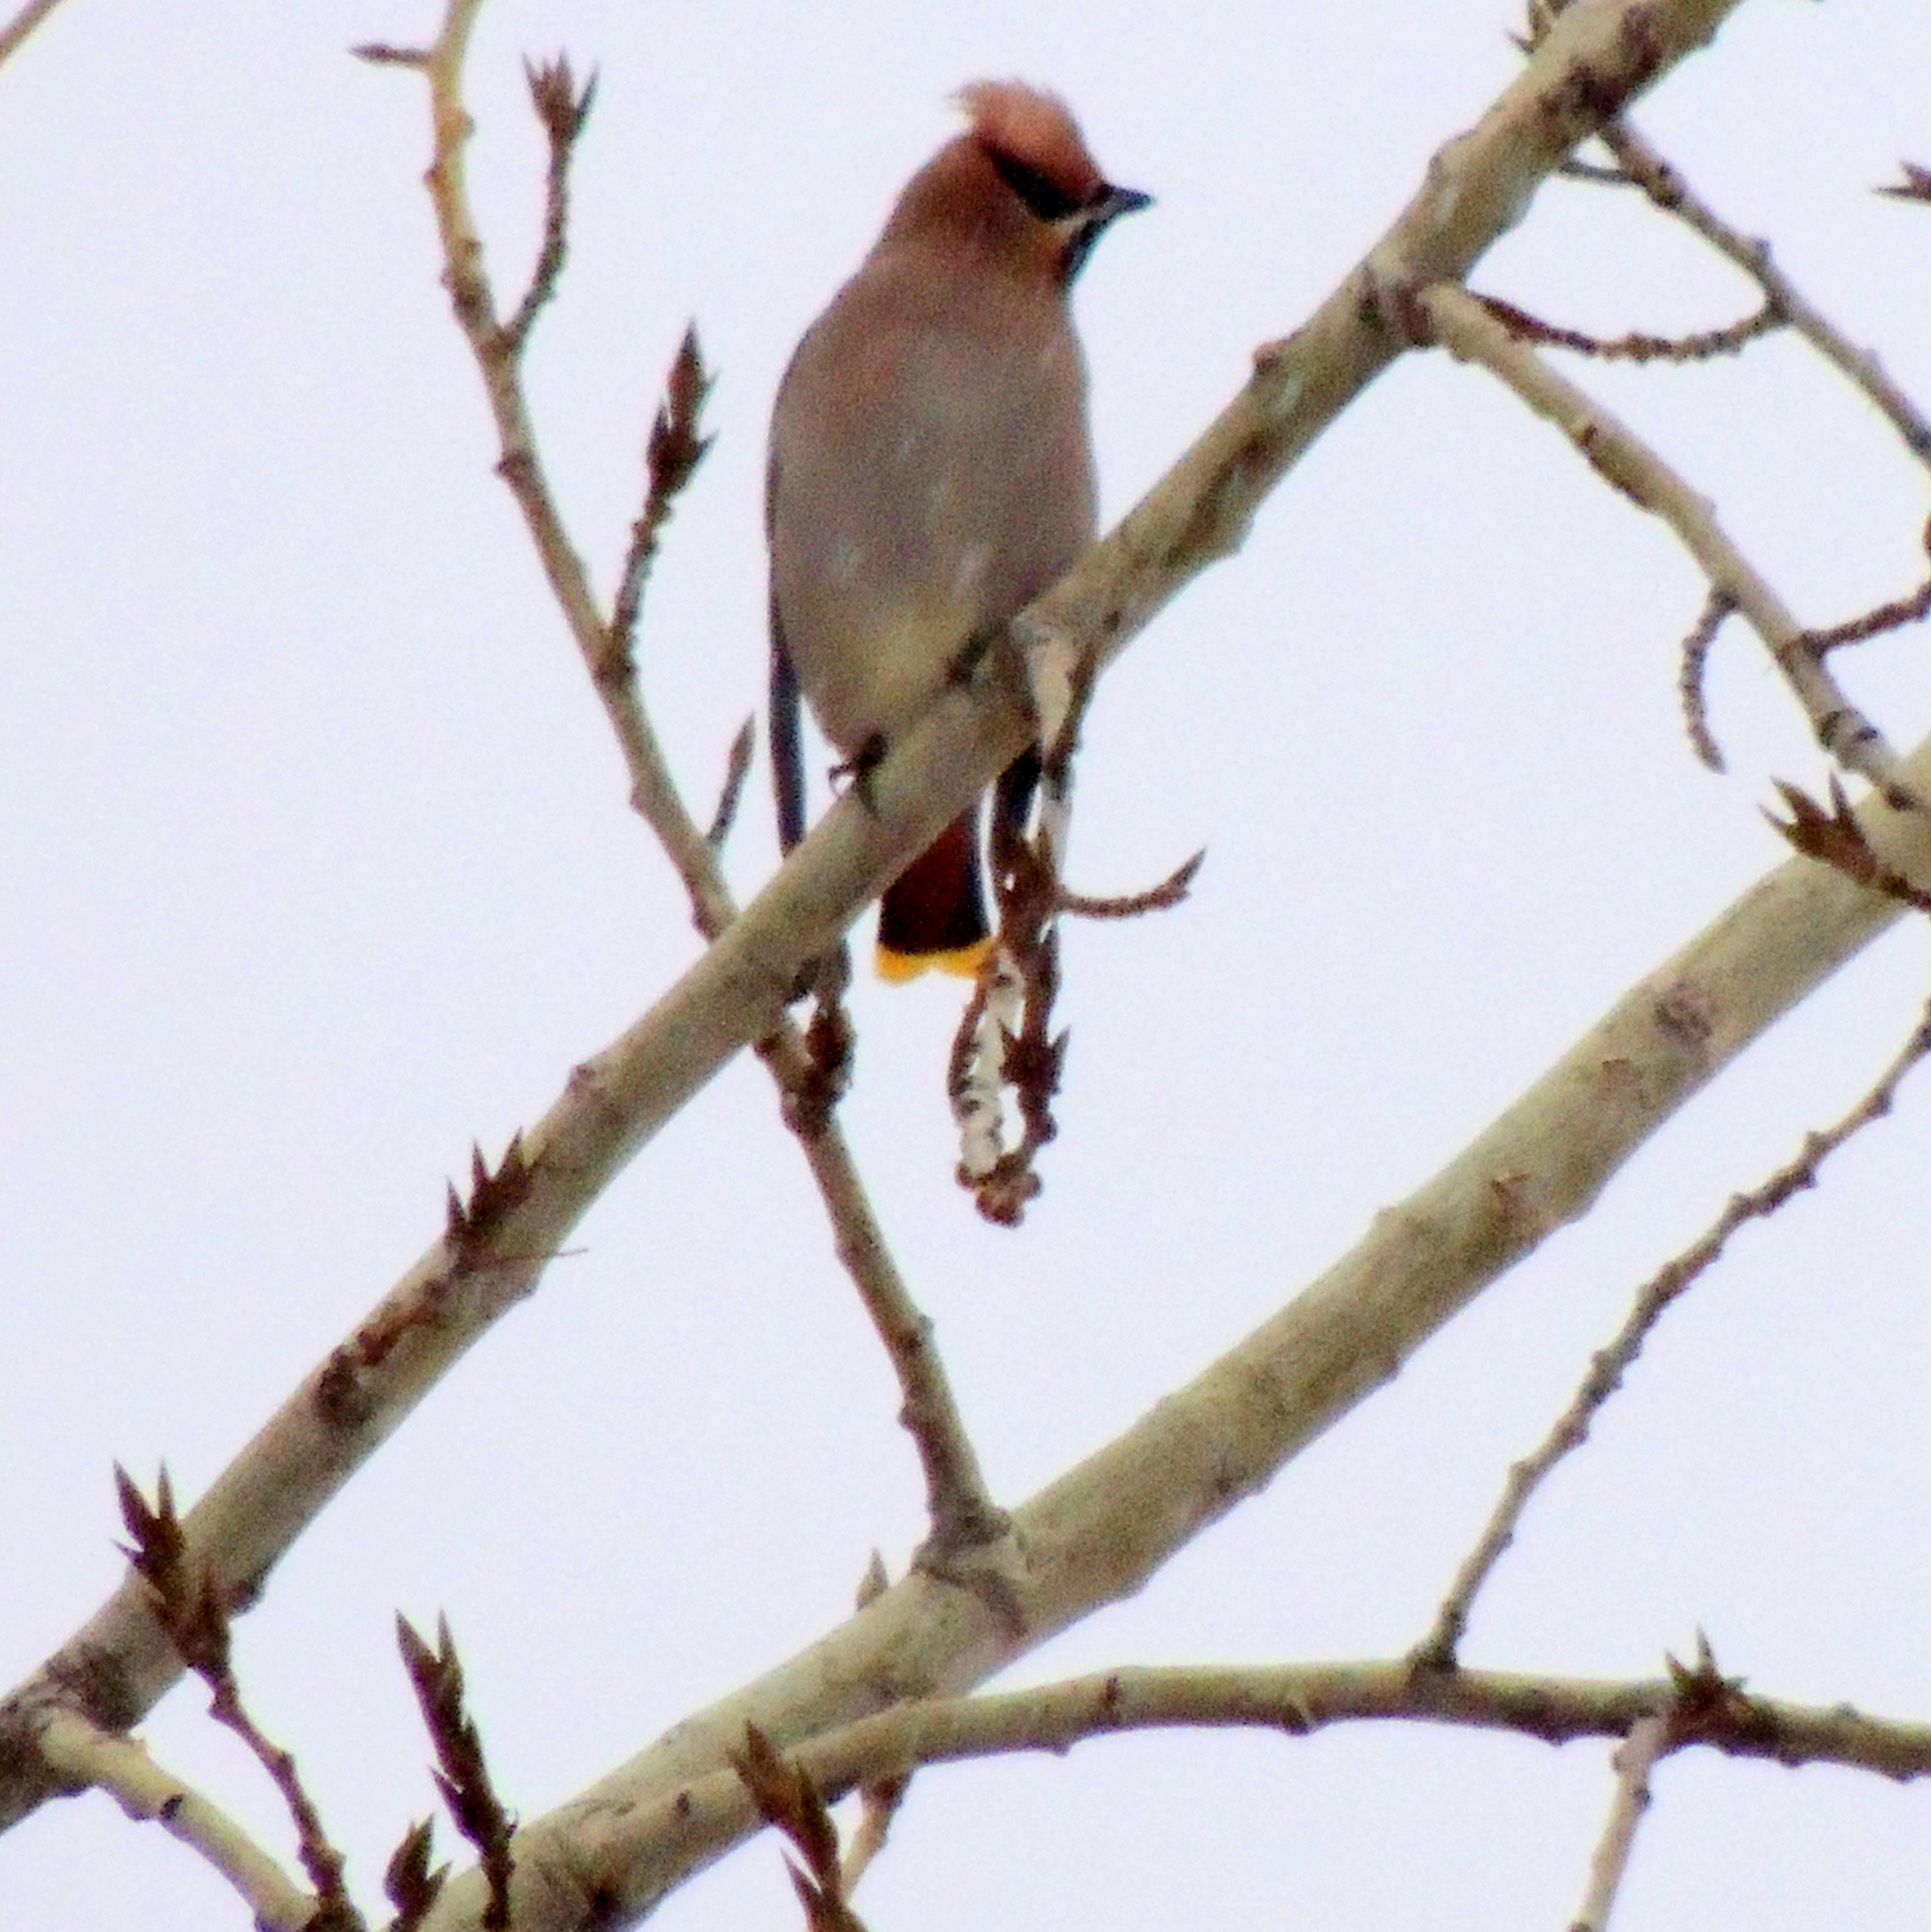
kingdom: Animalia
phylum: Chordata
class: Aves
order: Passeriformes
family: Bombycillidae
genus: Bombycilla
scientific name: Bombycilla garrulus
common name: Bohemian waxwing
